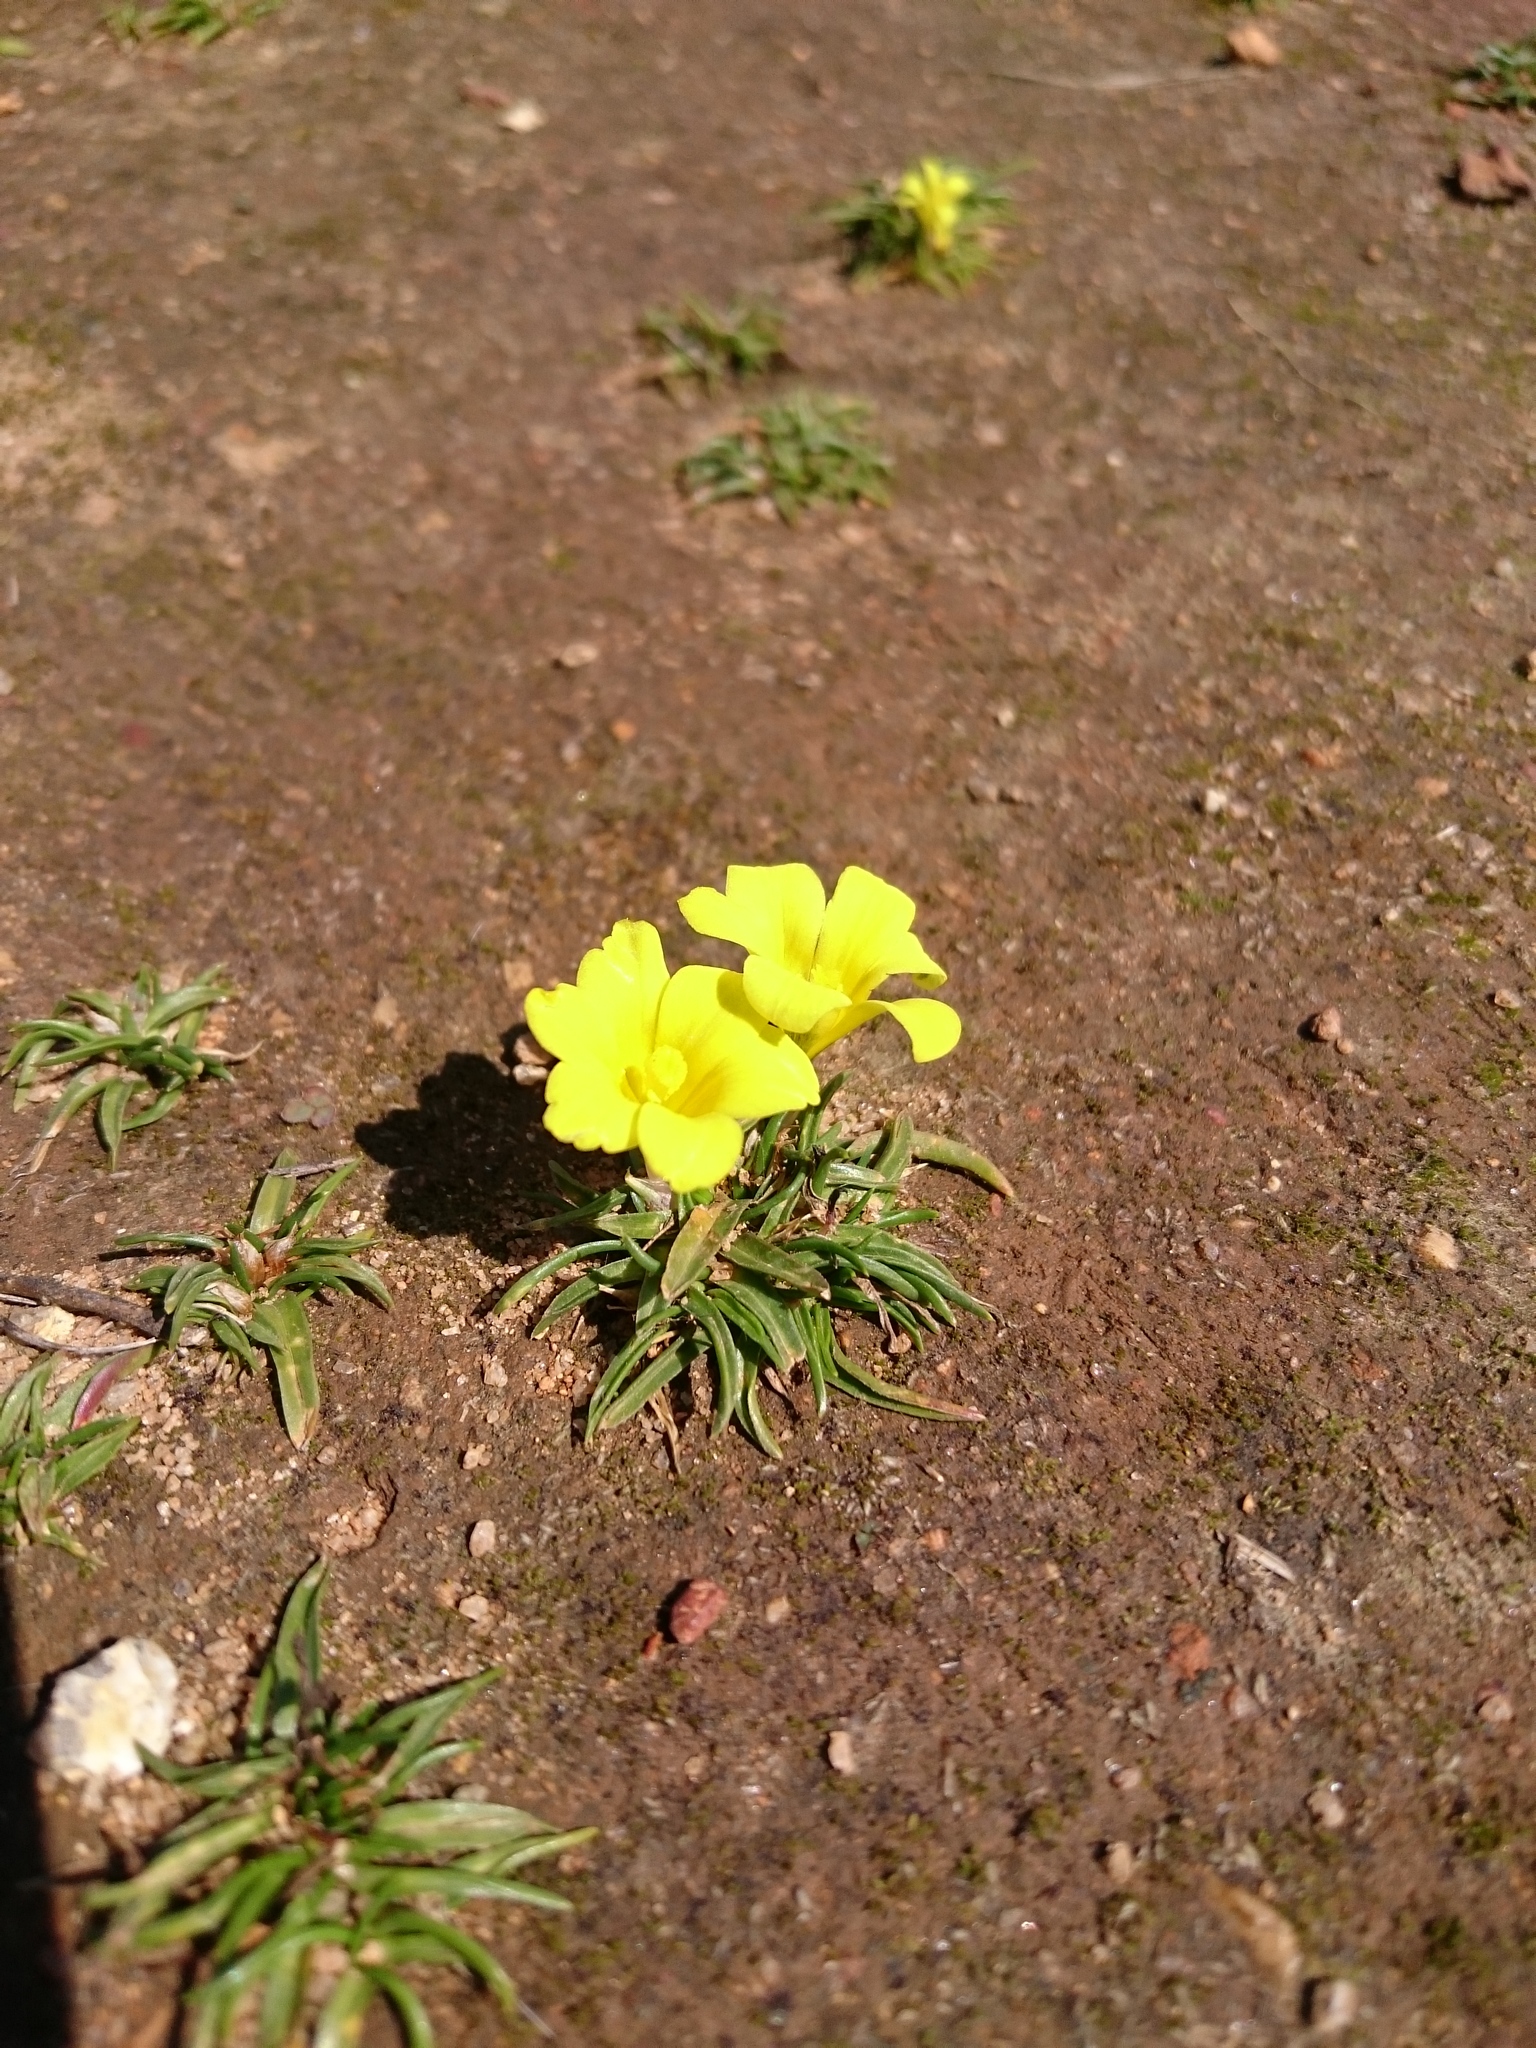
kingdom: Plantae
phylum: Tracheophyta
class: Liliopsida
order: Asparagales
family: Iridaceae
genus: Moraea
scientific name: Moraea fugacissima
